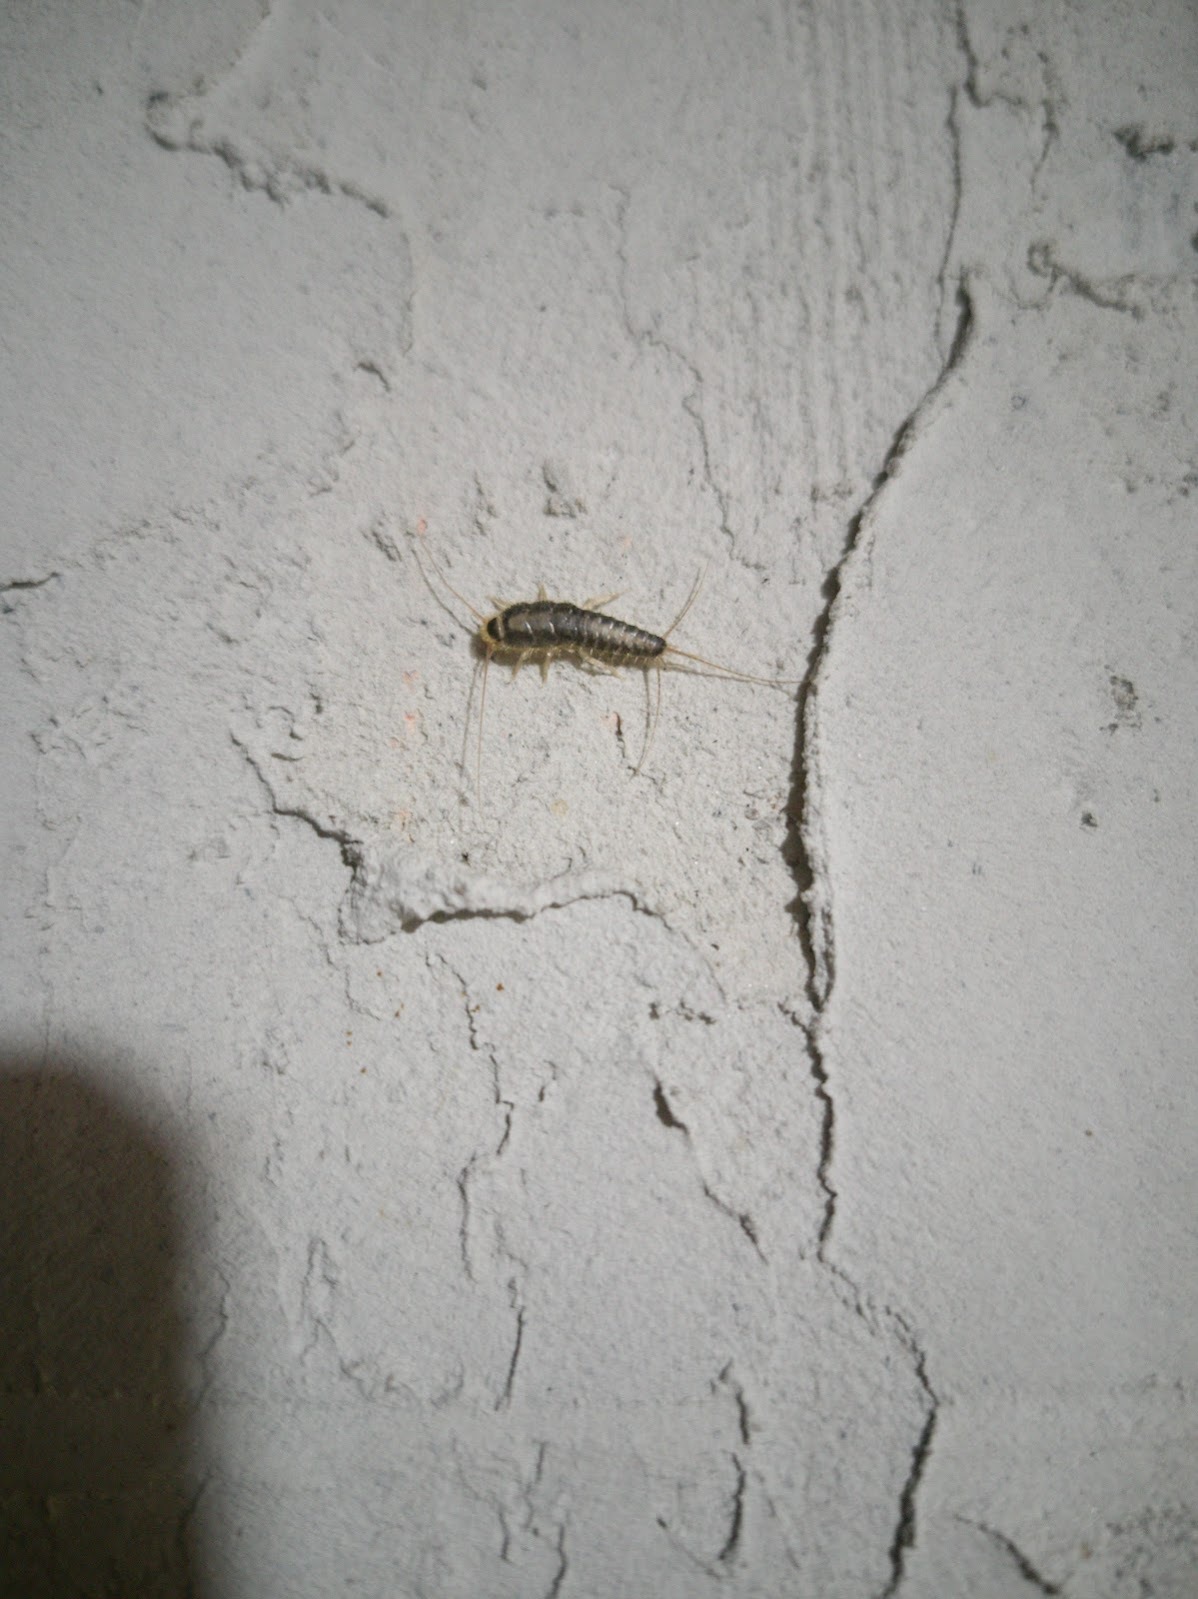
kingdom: Animalia
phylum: Arthropoda
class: Insecta
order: Zygentoma
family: Lepismatidae
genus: Ctenolepisma
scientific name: Ctenolepisma longicaudatum
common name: Silverfish
